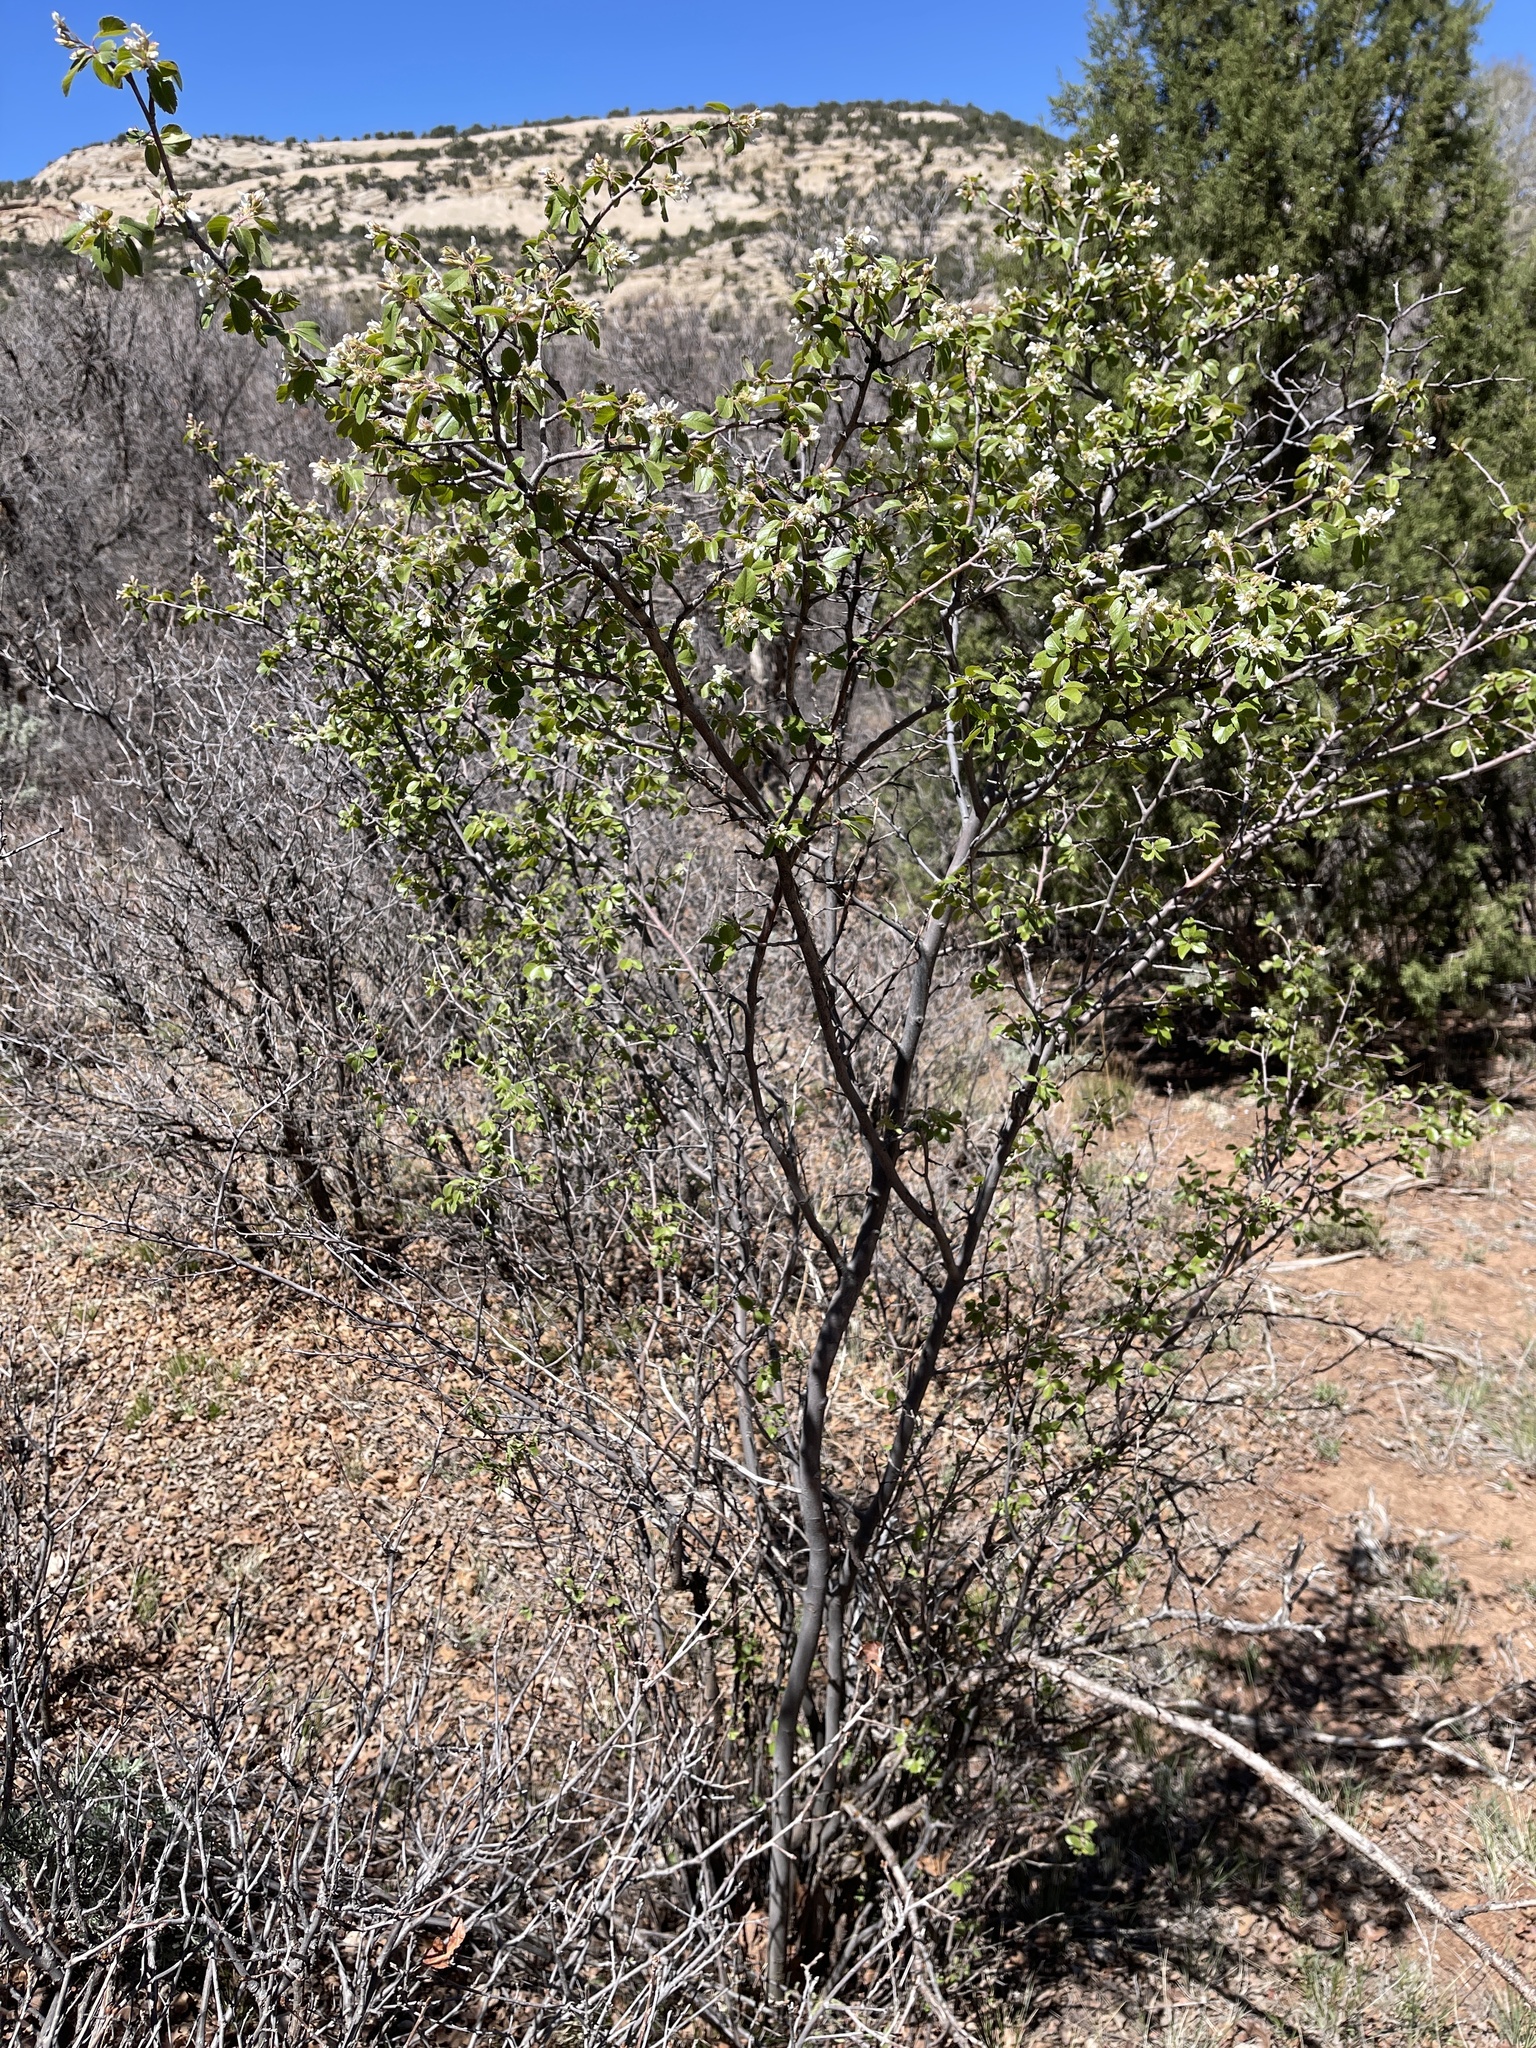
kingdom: Plantae
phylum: Tracheophyta
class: Magnoliopsida
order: Rosales
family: Rosaceae
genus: Amelanchier
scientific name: Amelanchier utahensis
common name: Utah serviceberry
